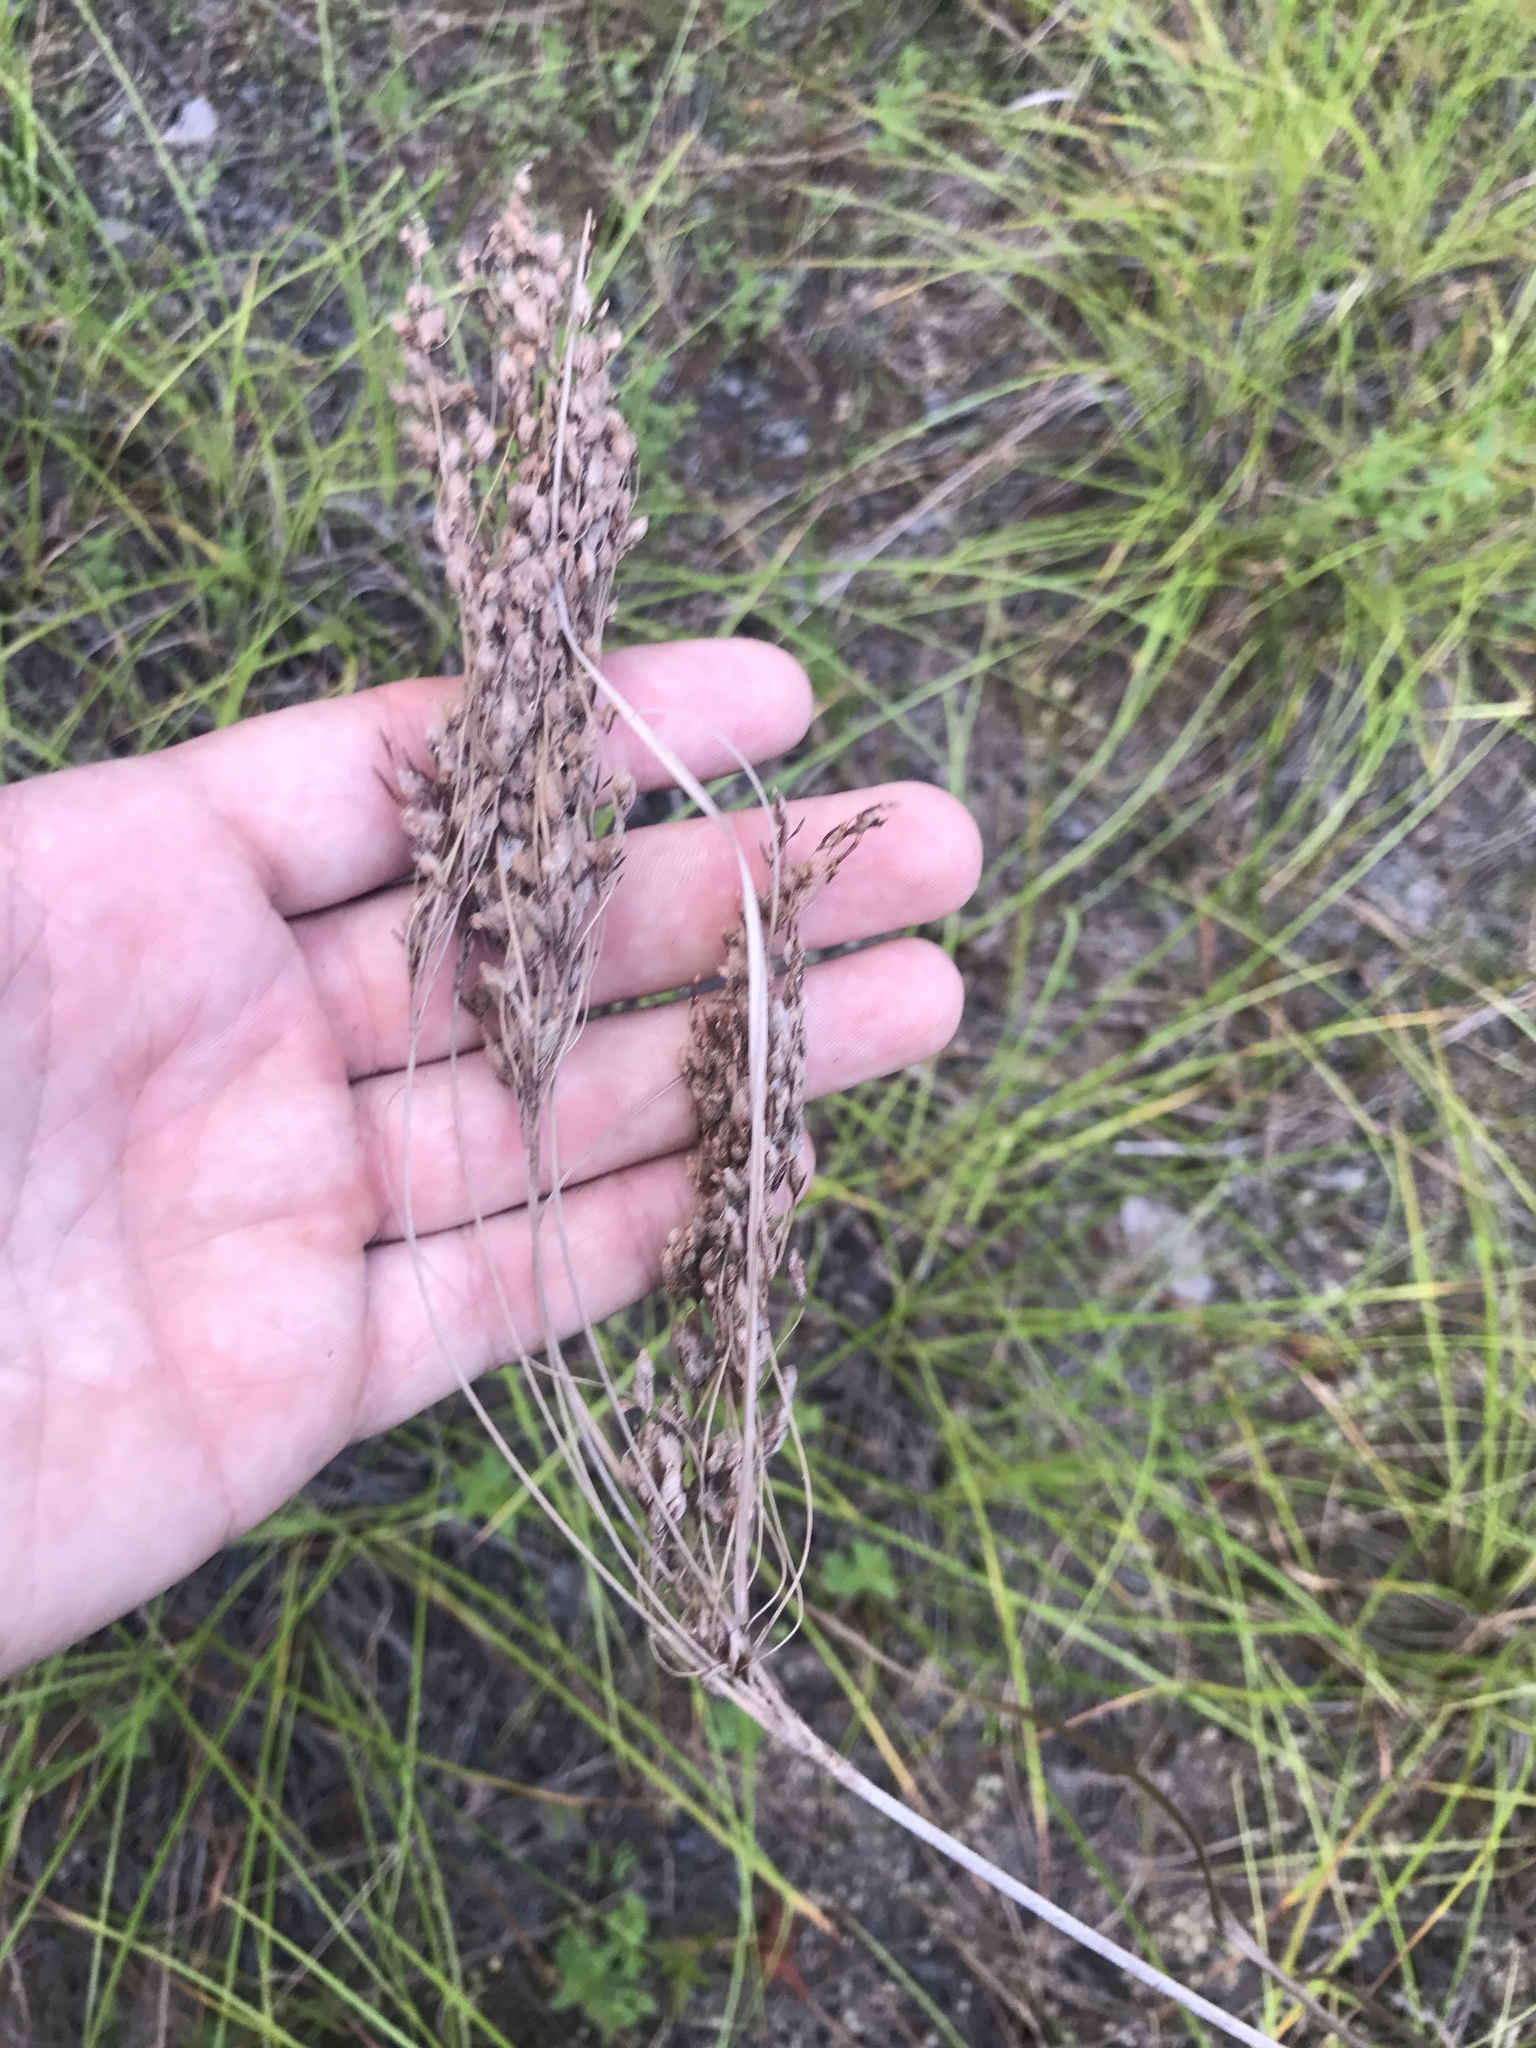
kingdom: Plantae
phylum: Tracheophyta
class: Liliopsida
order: Poales
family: Cyperaceae
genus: Scirpus
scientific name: Scirpus cyperinus
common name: Black-sheathed bulrush
